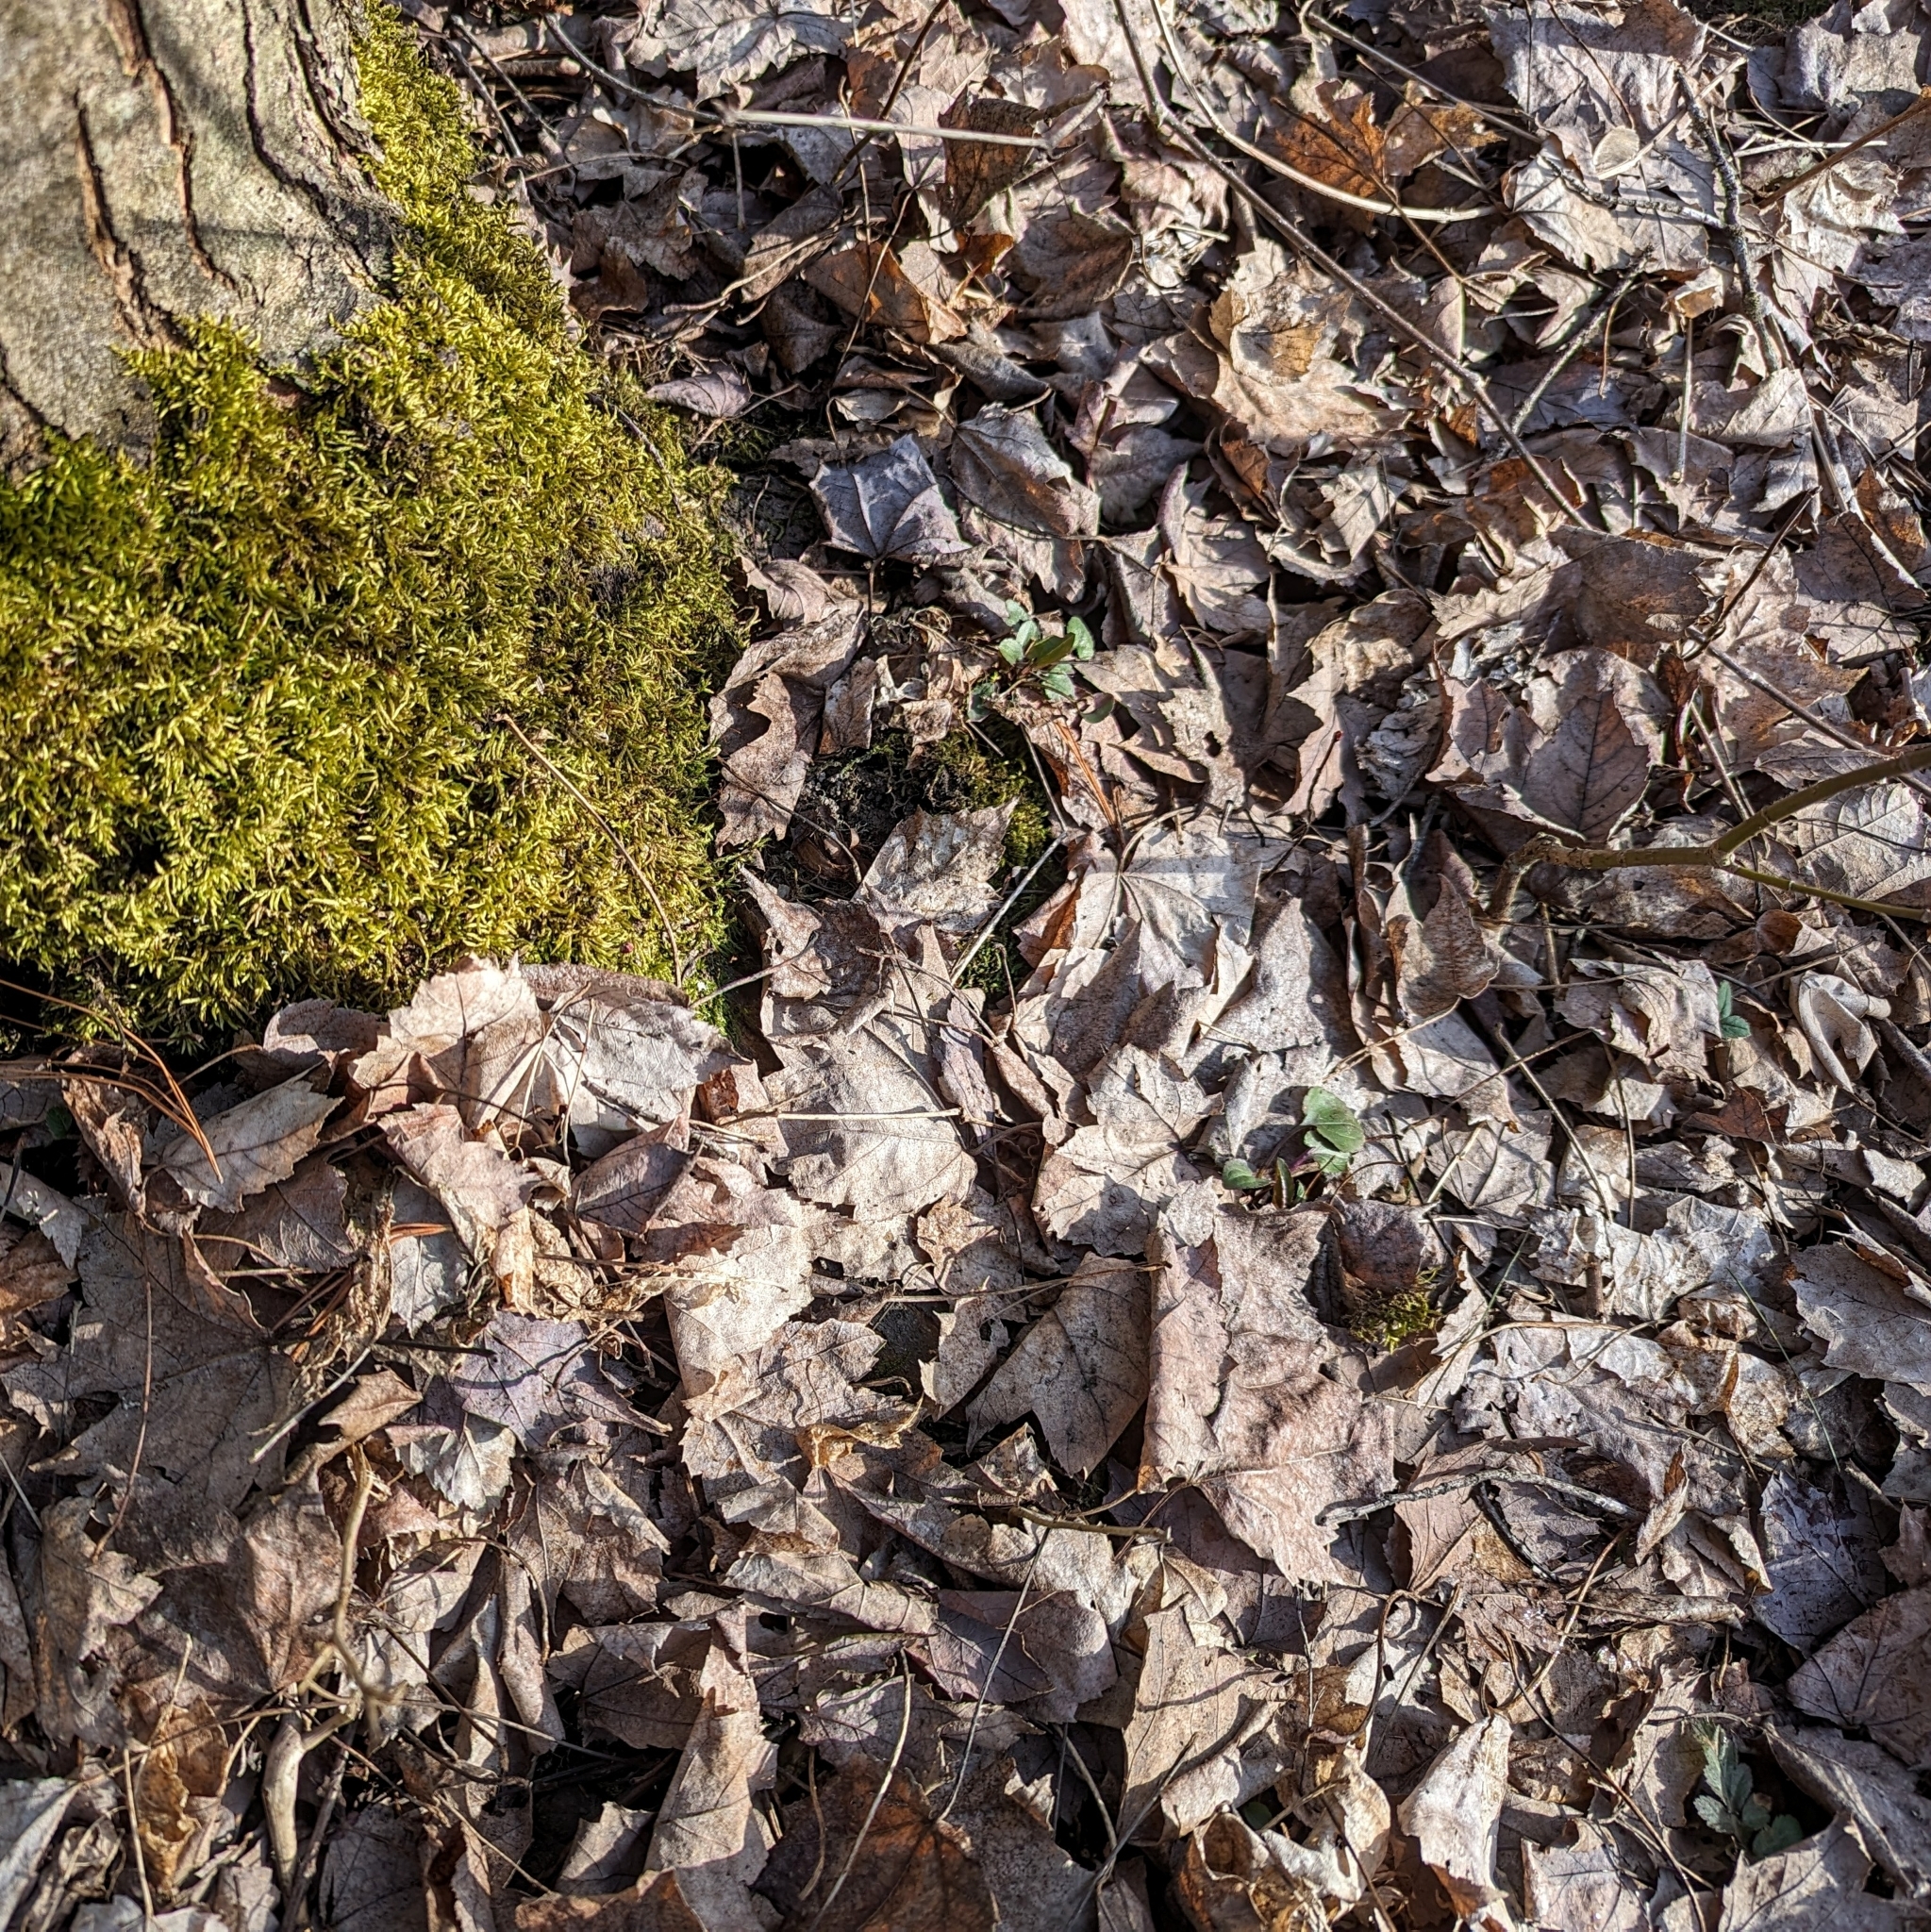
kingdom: Plantae
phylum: Tracheophyta
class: Magnoliopsida
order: Sapindales
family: Sapindaceae
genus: Acer
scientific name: Acer rubrum
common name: Red maple
